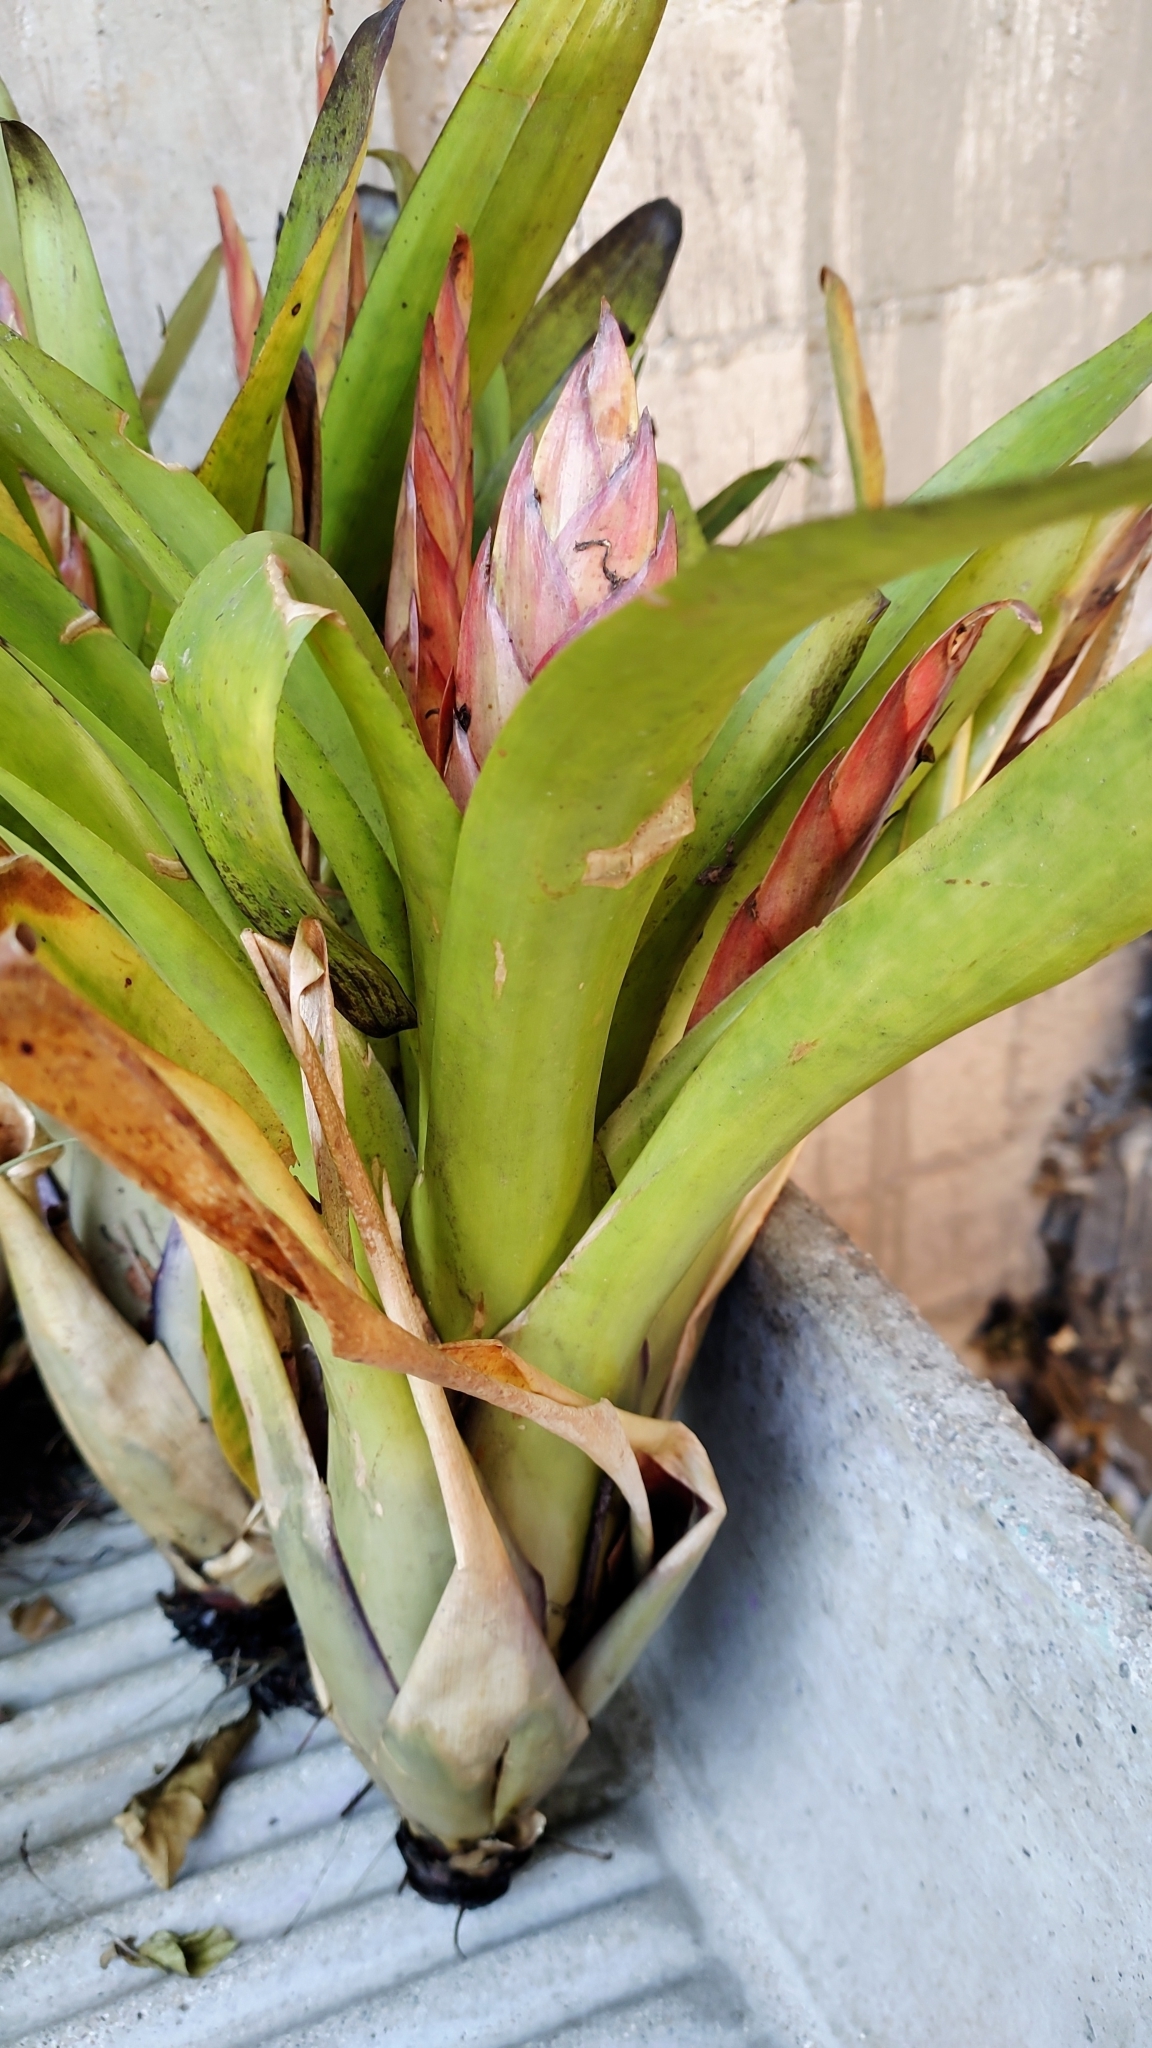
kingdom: Plantae
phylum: Tracheophyta
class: Liliopsida
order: Poales
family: Bromeliaceae
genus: Tillandsia
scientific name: Tillandsia punctulata
